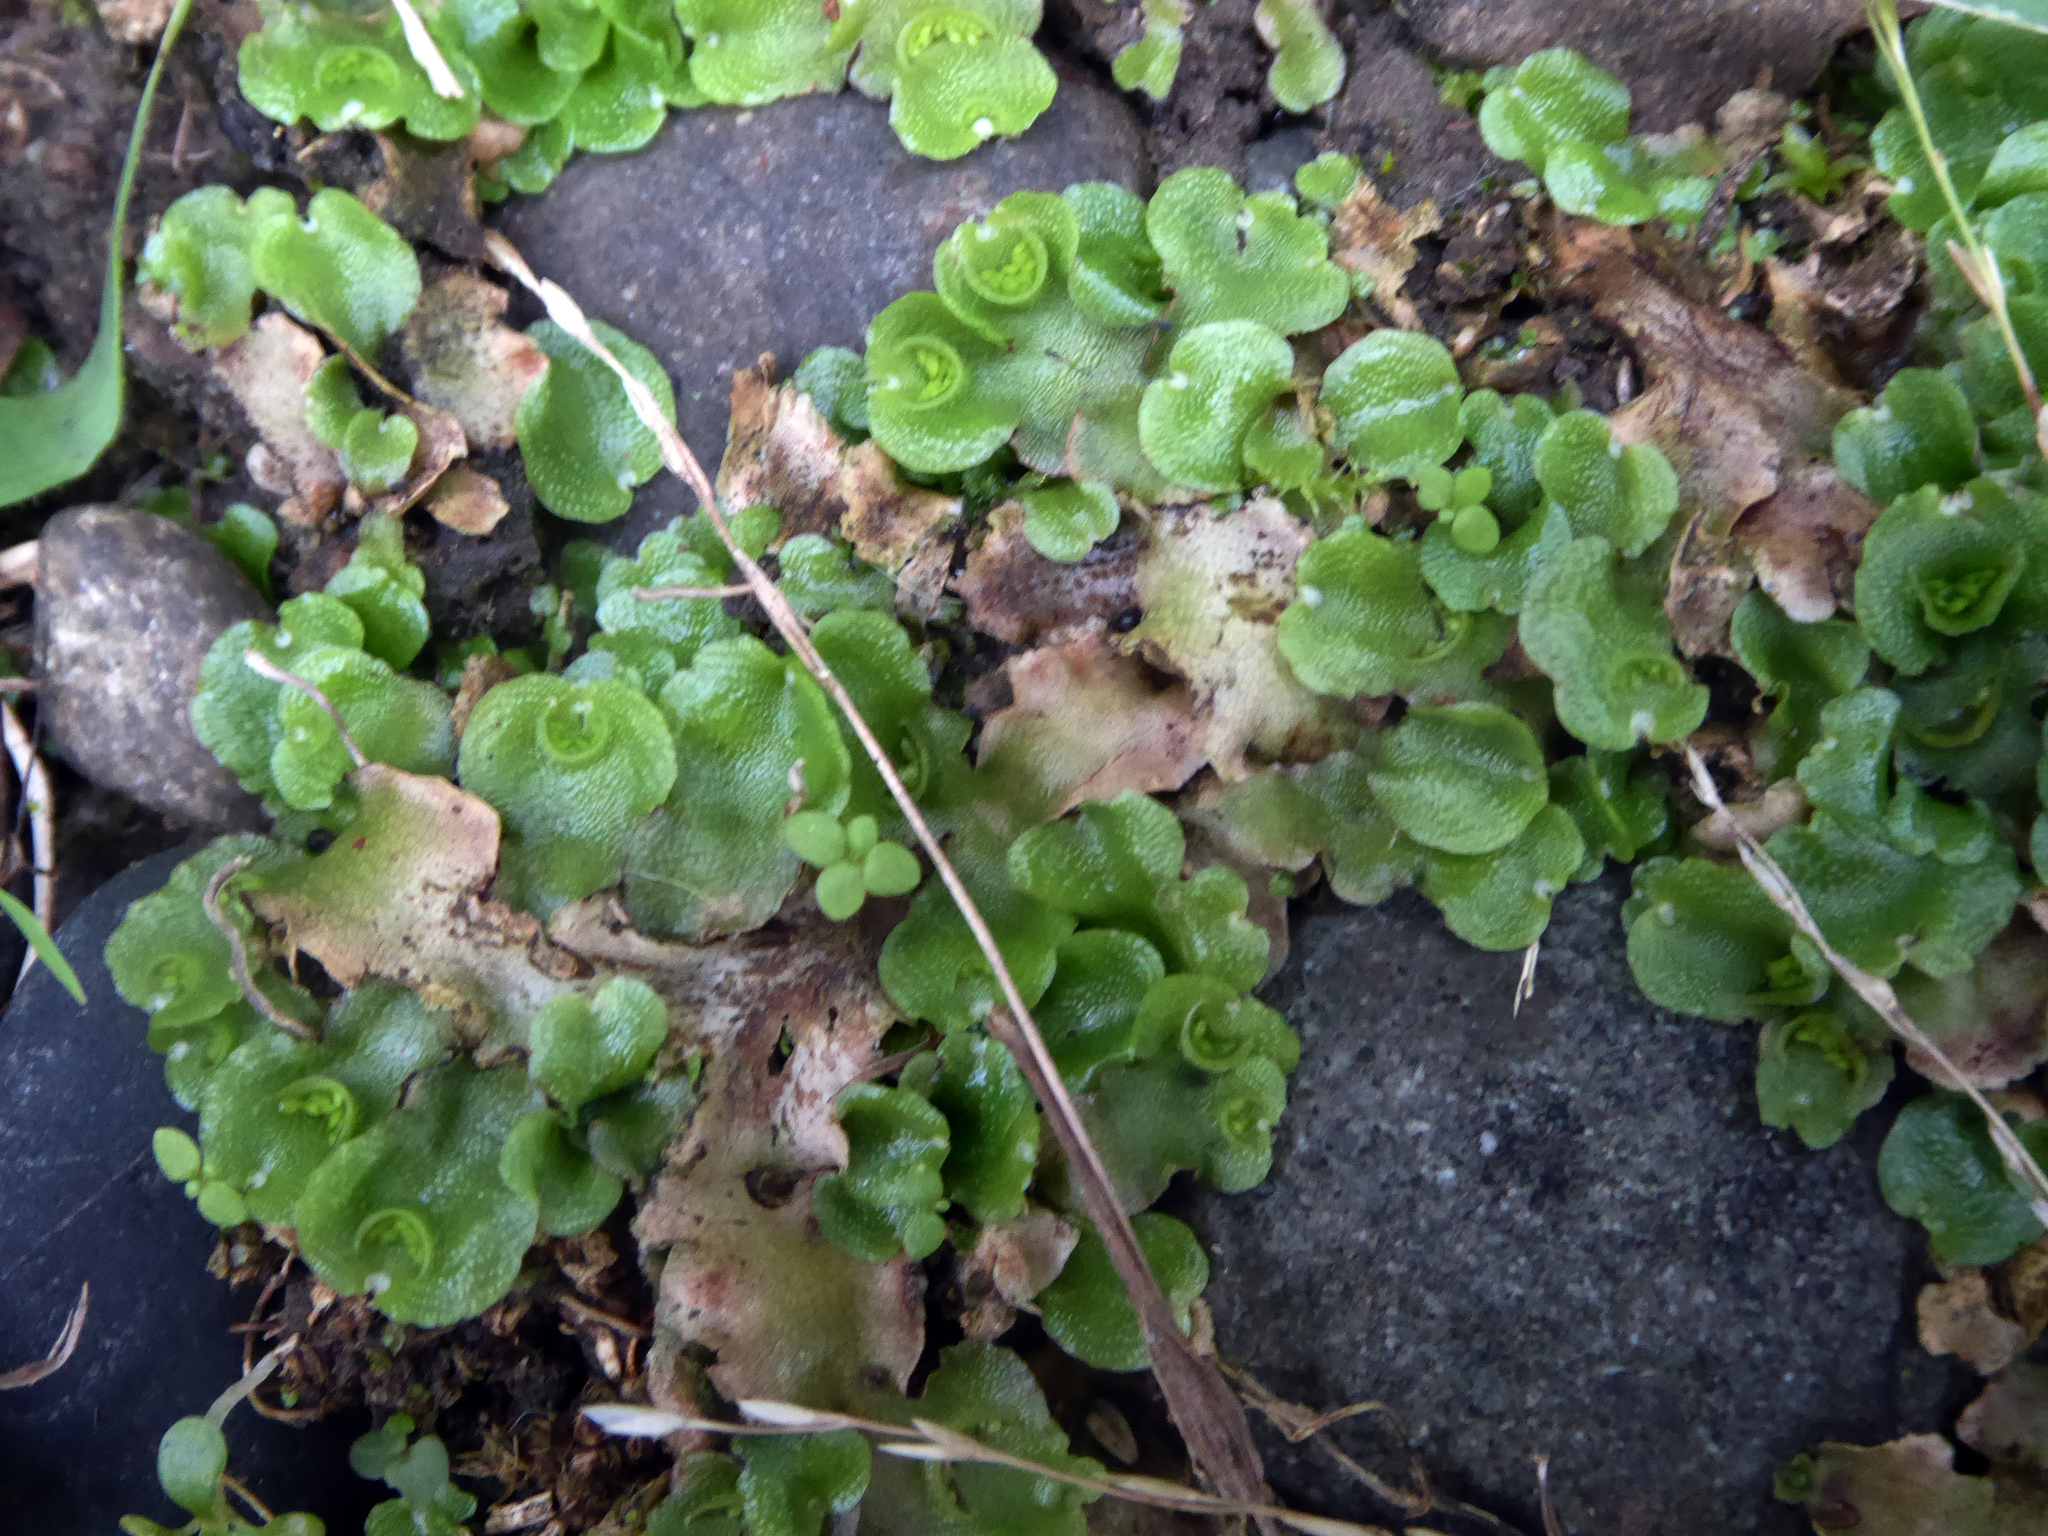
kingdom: Plantae
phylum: Marchantiophyta
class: Marchantiopsida
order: Lunulariales
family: Lunulariaceae
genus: Lunularia
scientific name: Lunularia cruciata
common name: Crescent-cup liverwort
